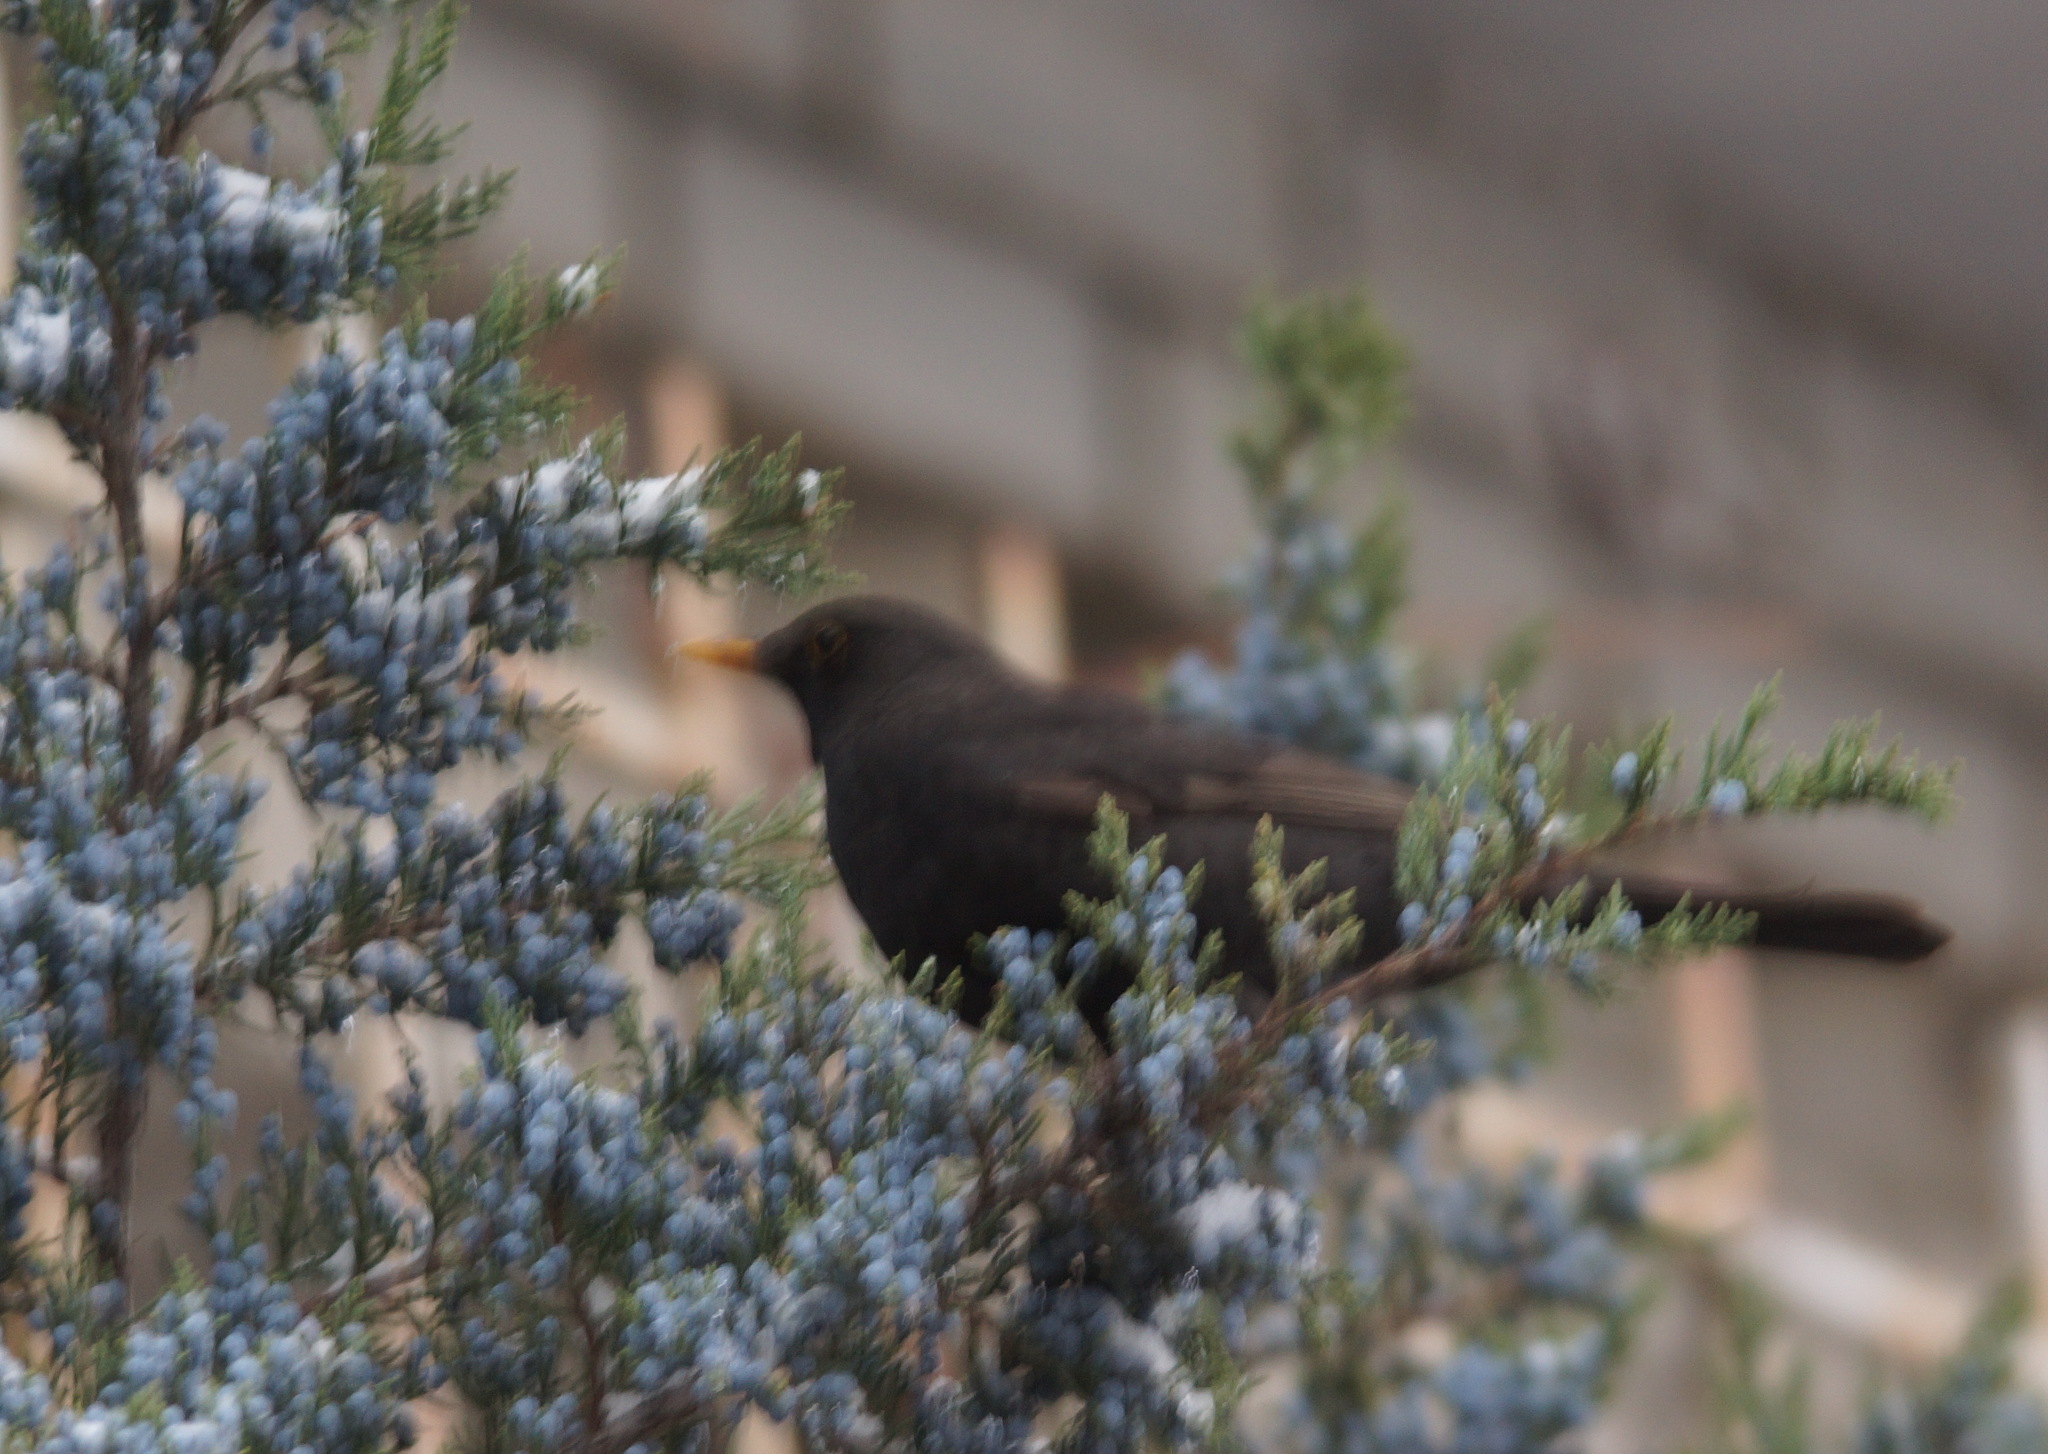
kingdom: Animalia
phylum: Chordata
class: Aves
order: Passeriformes
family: Turdidae
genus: Turdus
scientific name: Turdus merula
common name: Common blackbird
